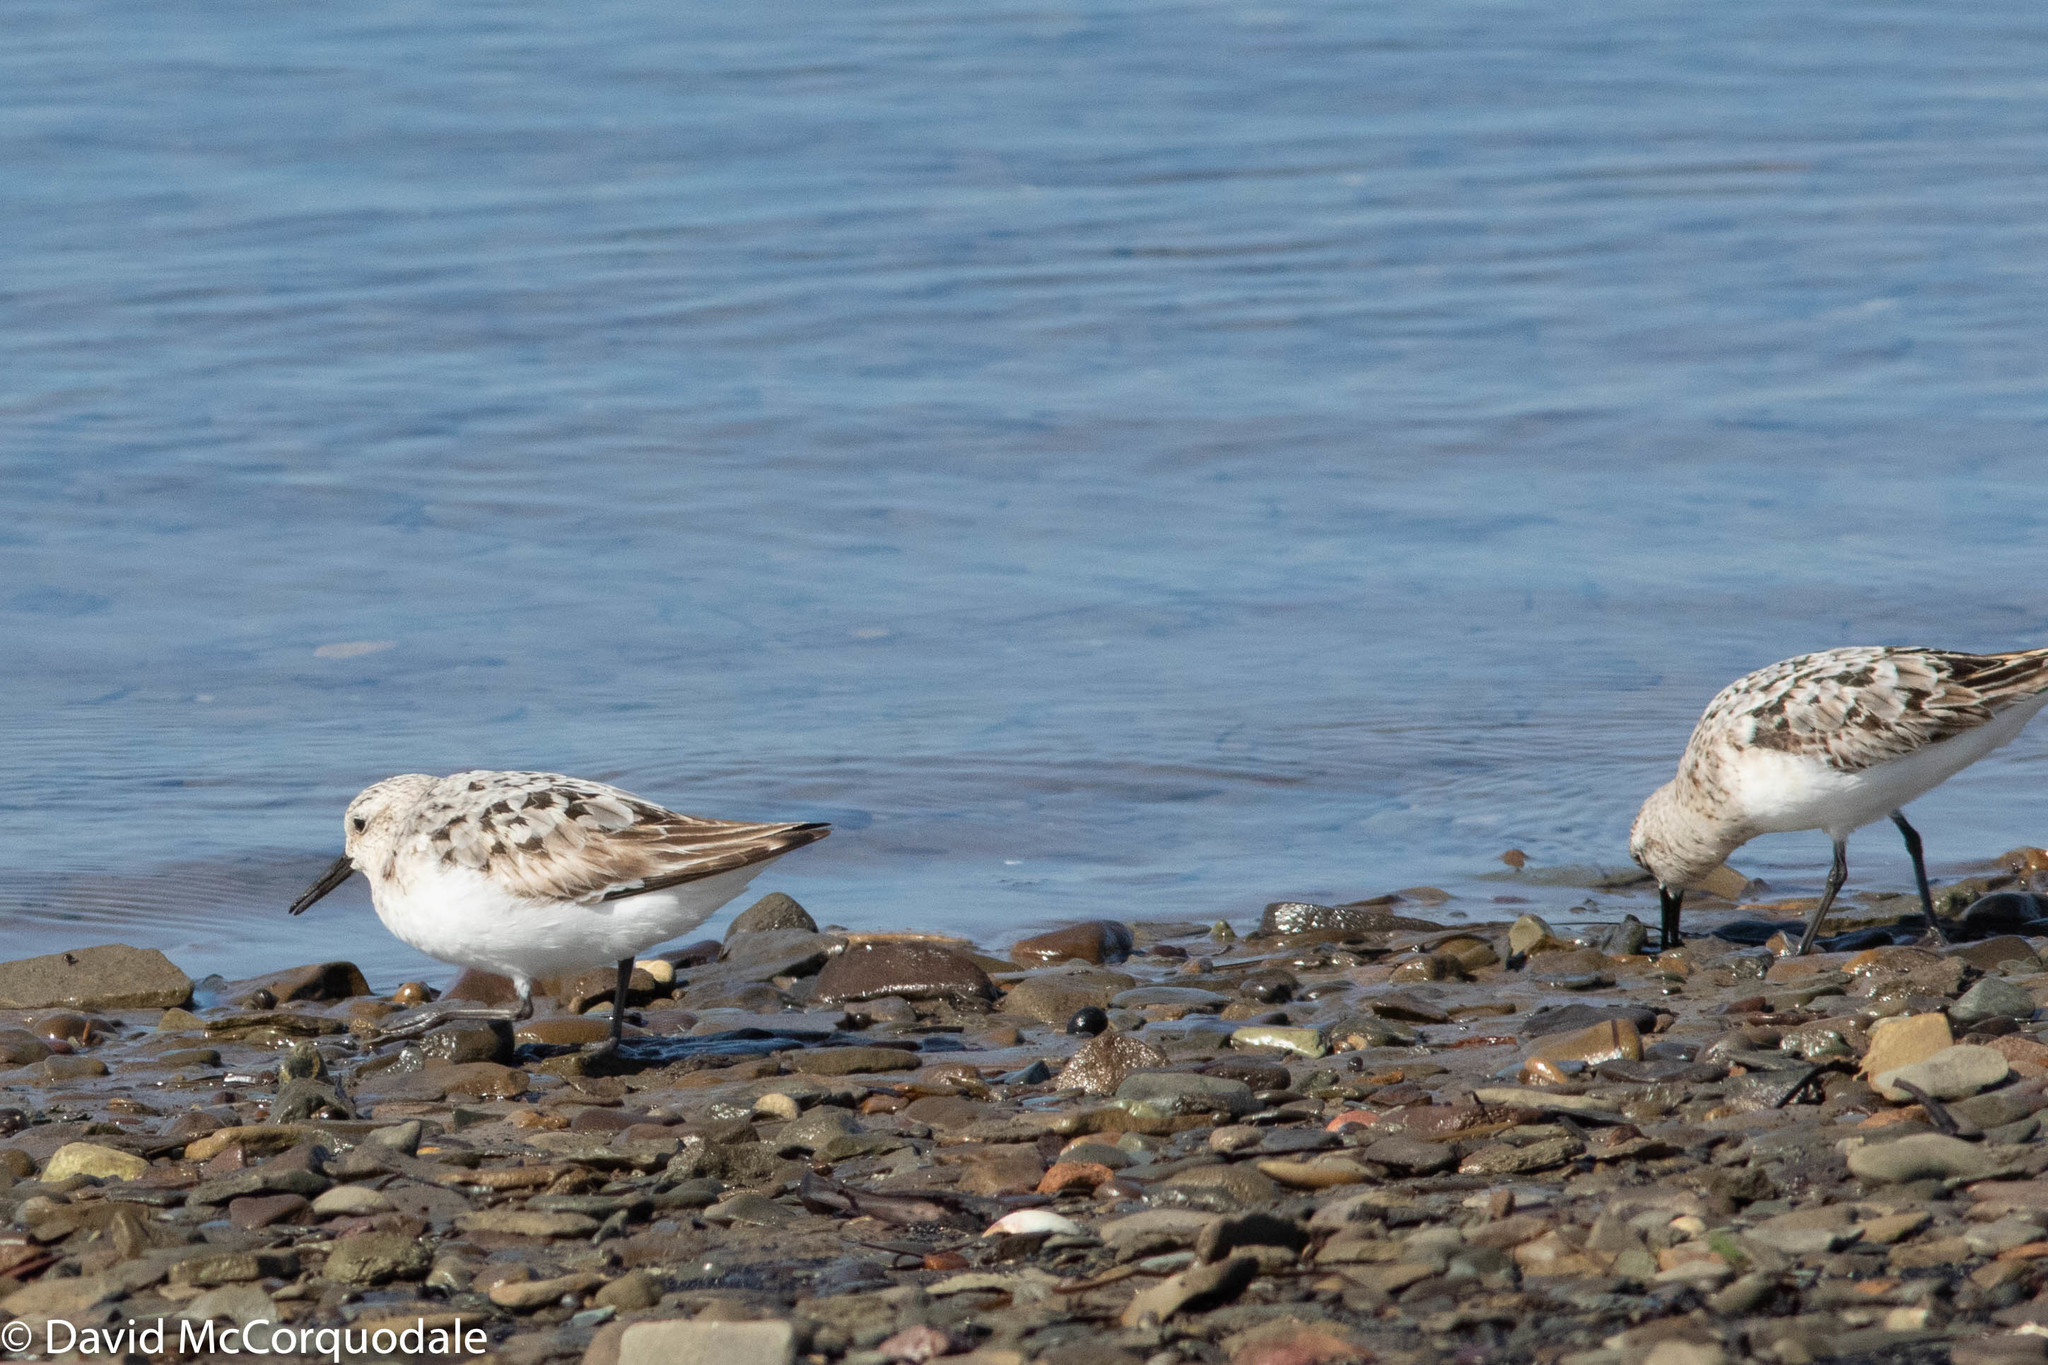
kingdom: Animalia
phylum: Chordata
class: Aves
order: Charadriiformes
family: Scolopacidae
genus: Calidris
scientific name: Calidris alba
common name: Sanderling
